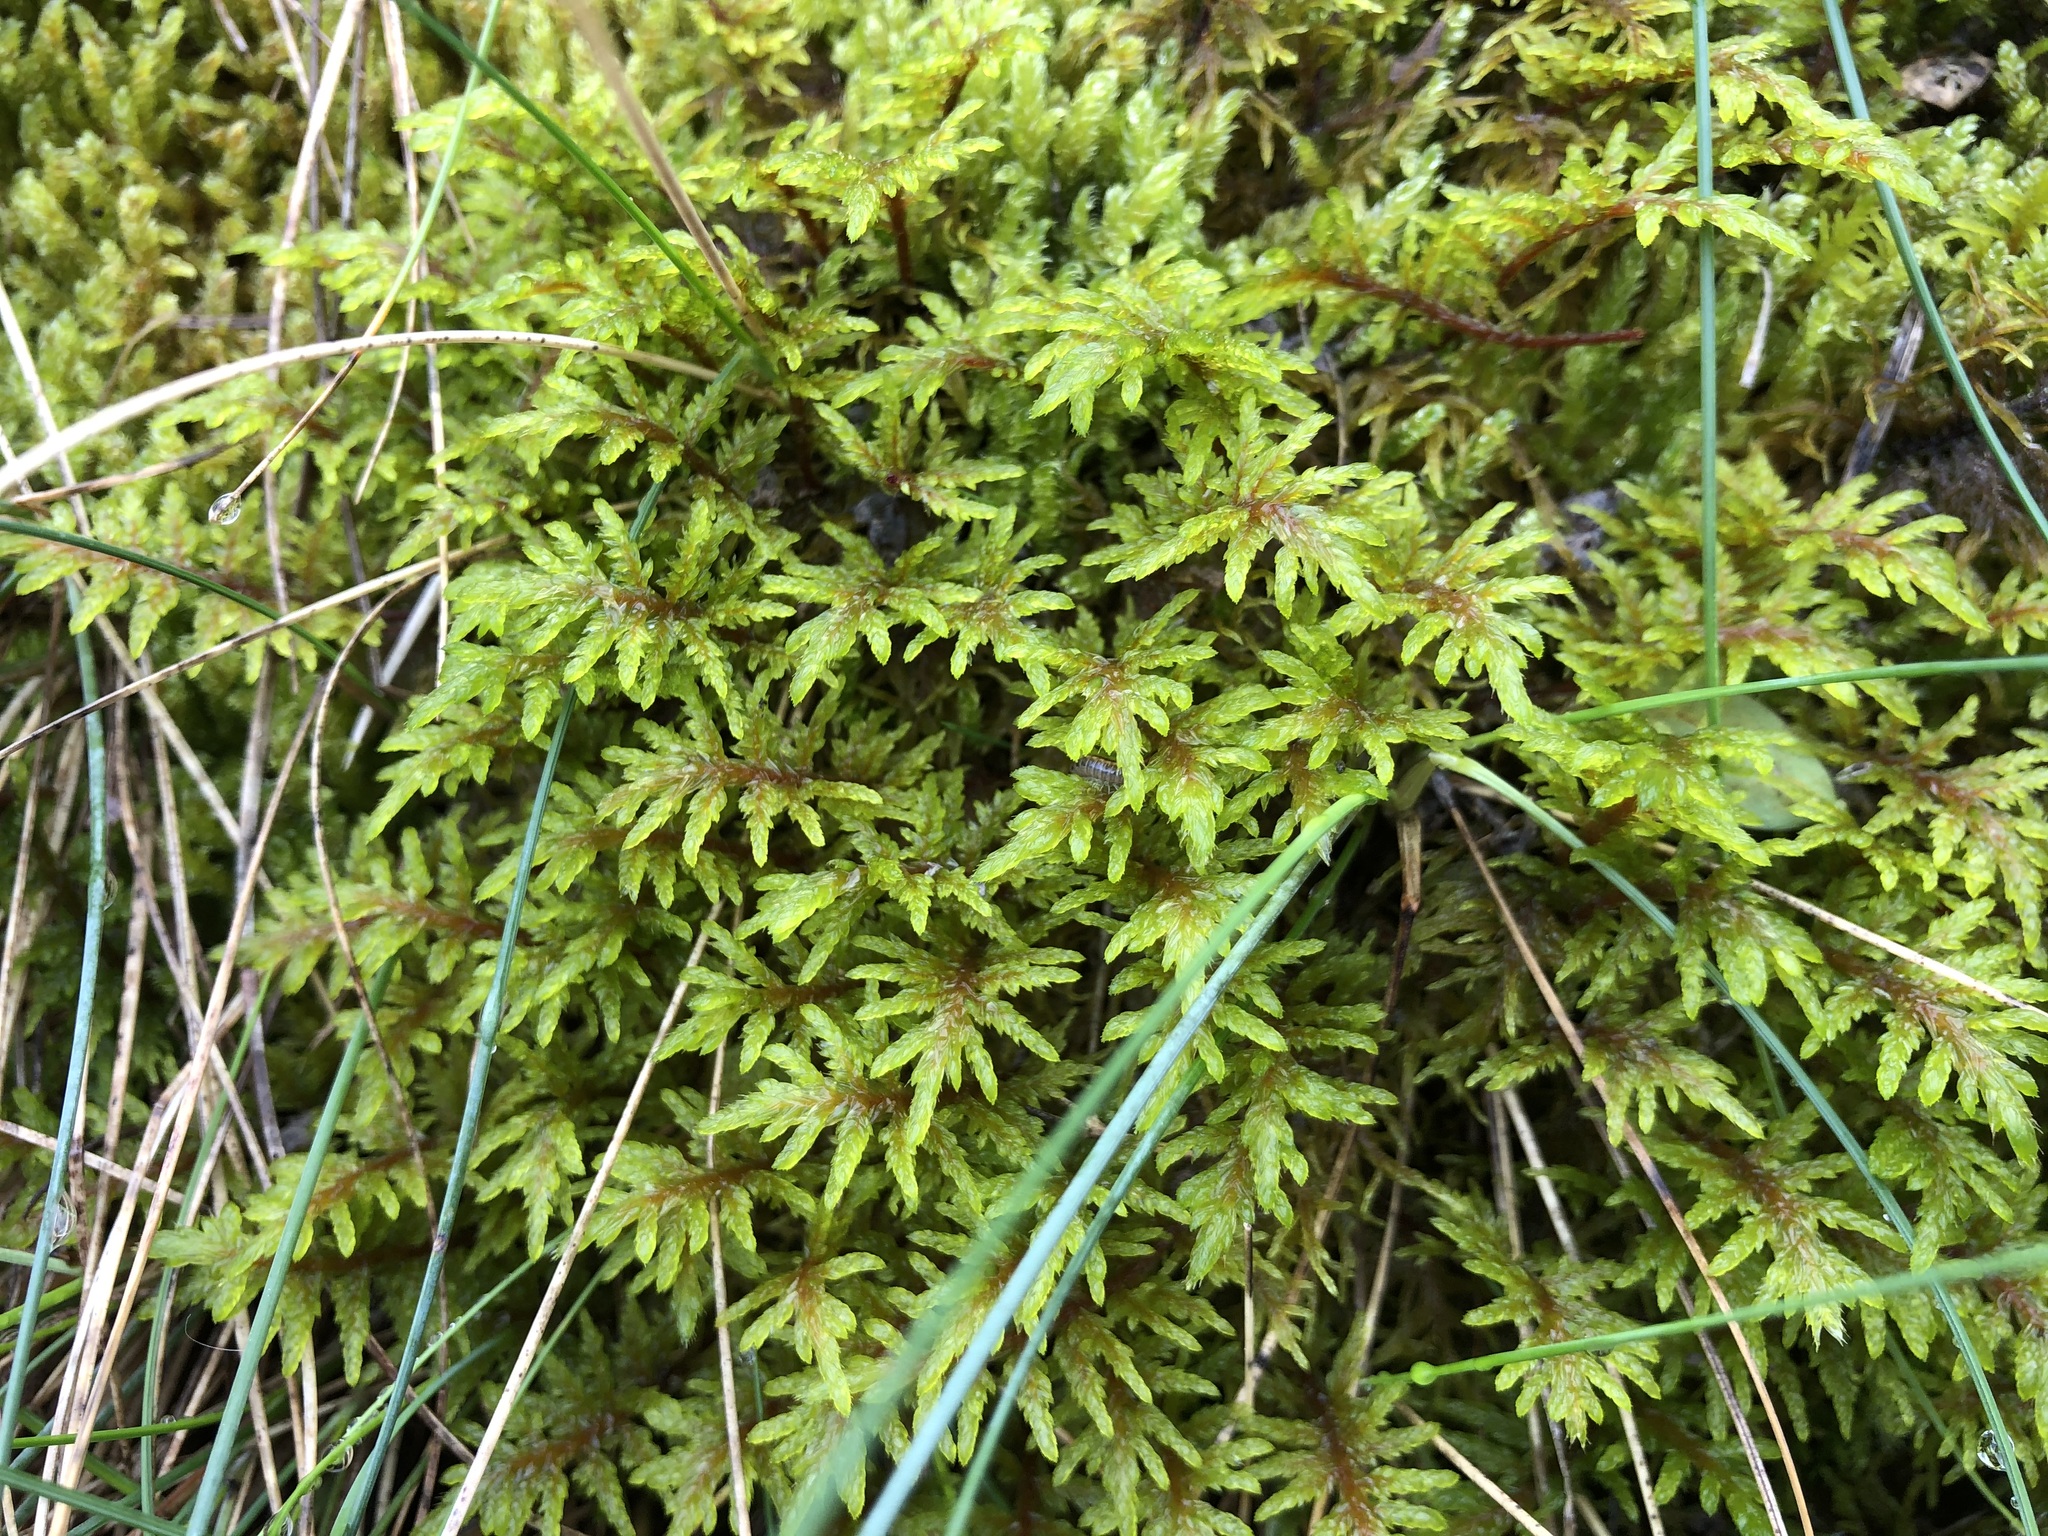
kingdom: Plantae
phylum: Bryophyta
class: Bryopsida
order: Hypnales
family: Hylocomiaceae
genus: Hylocomium
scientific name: Hylocomium splendens
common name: Stairstep moss
